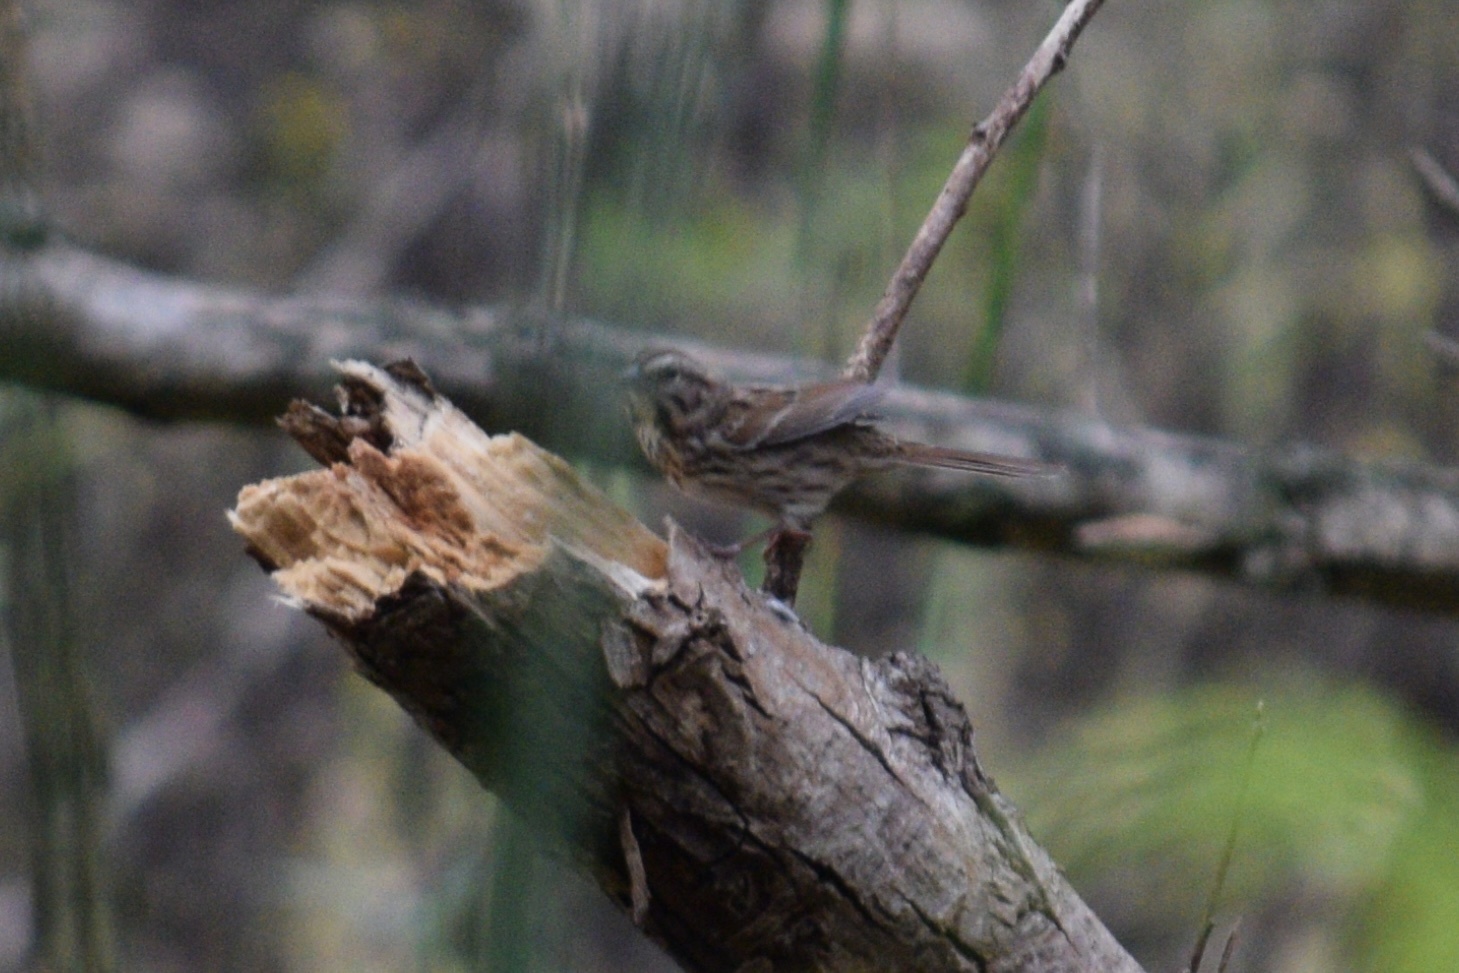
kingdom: Animalia
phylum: Chordata
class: Aves
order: Passeriformes
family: Passerellidae
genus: Melospiza
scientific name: Melospiza melodia
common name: Song sparrow
